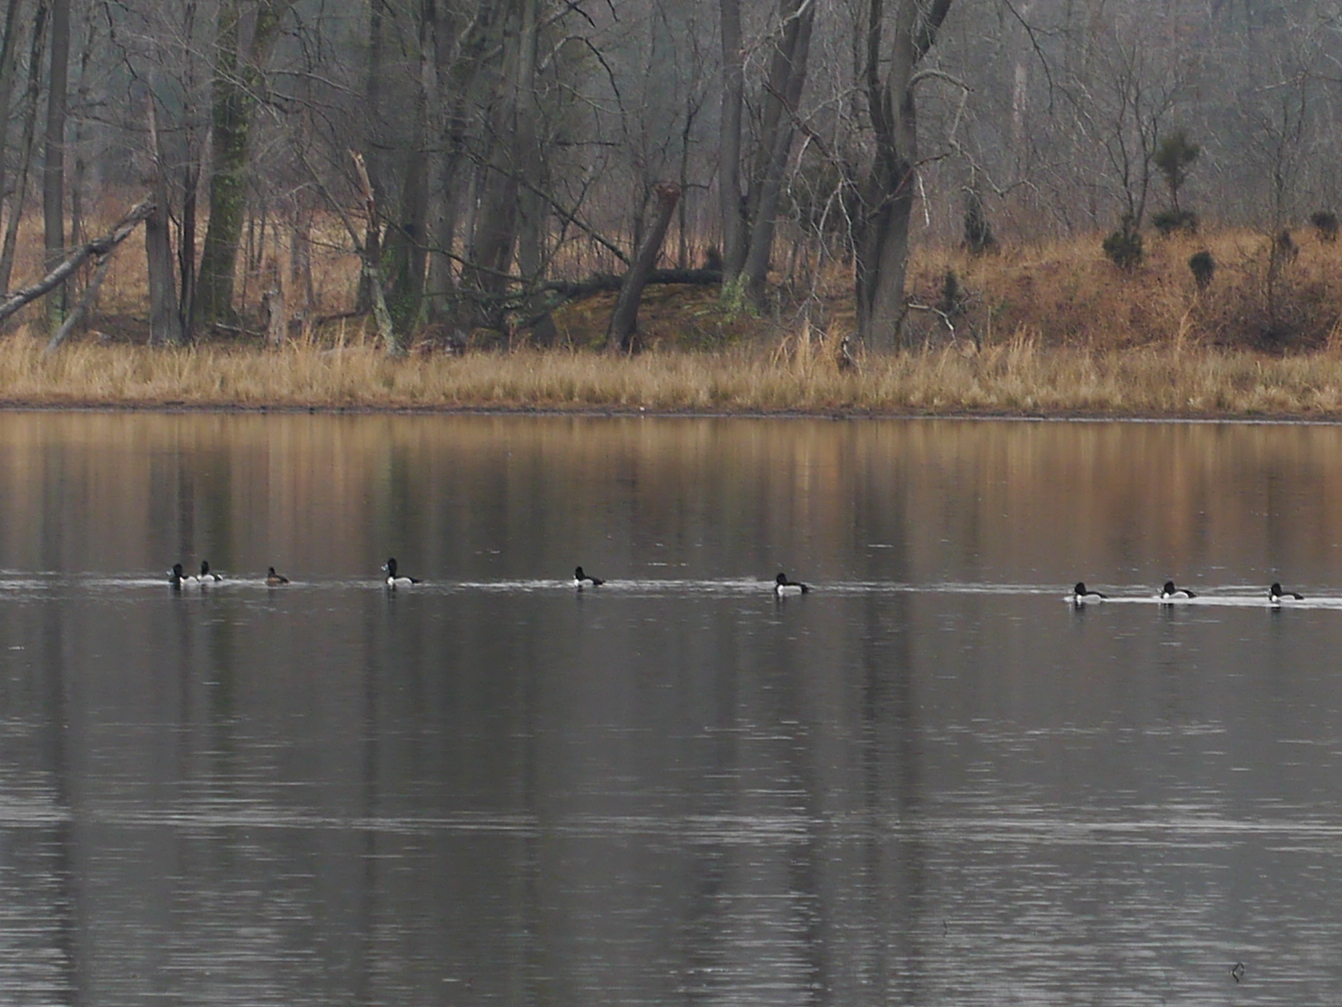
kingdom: Animalia
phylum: Chordata
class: Aves
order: Anseriformes
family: Anatidae
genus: Aythya
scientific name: Aythya collaris
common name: Ring-necked duck
